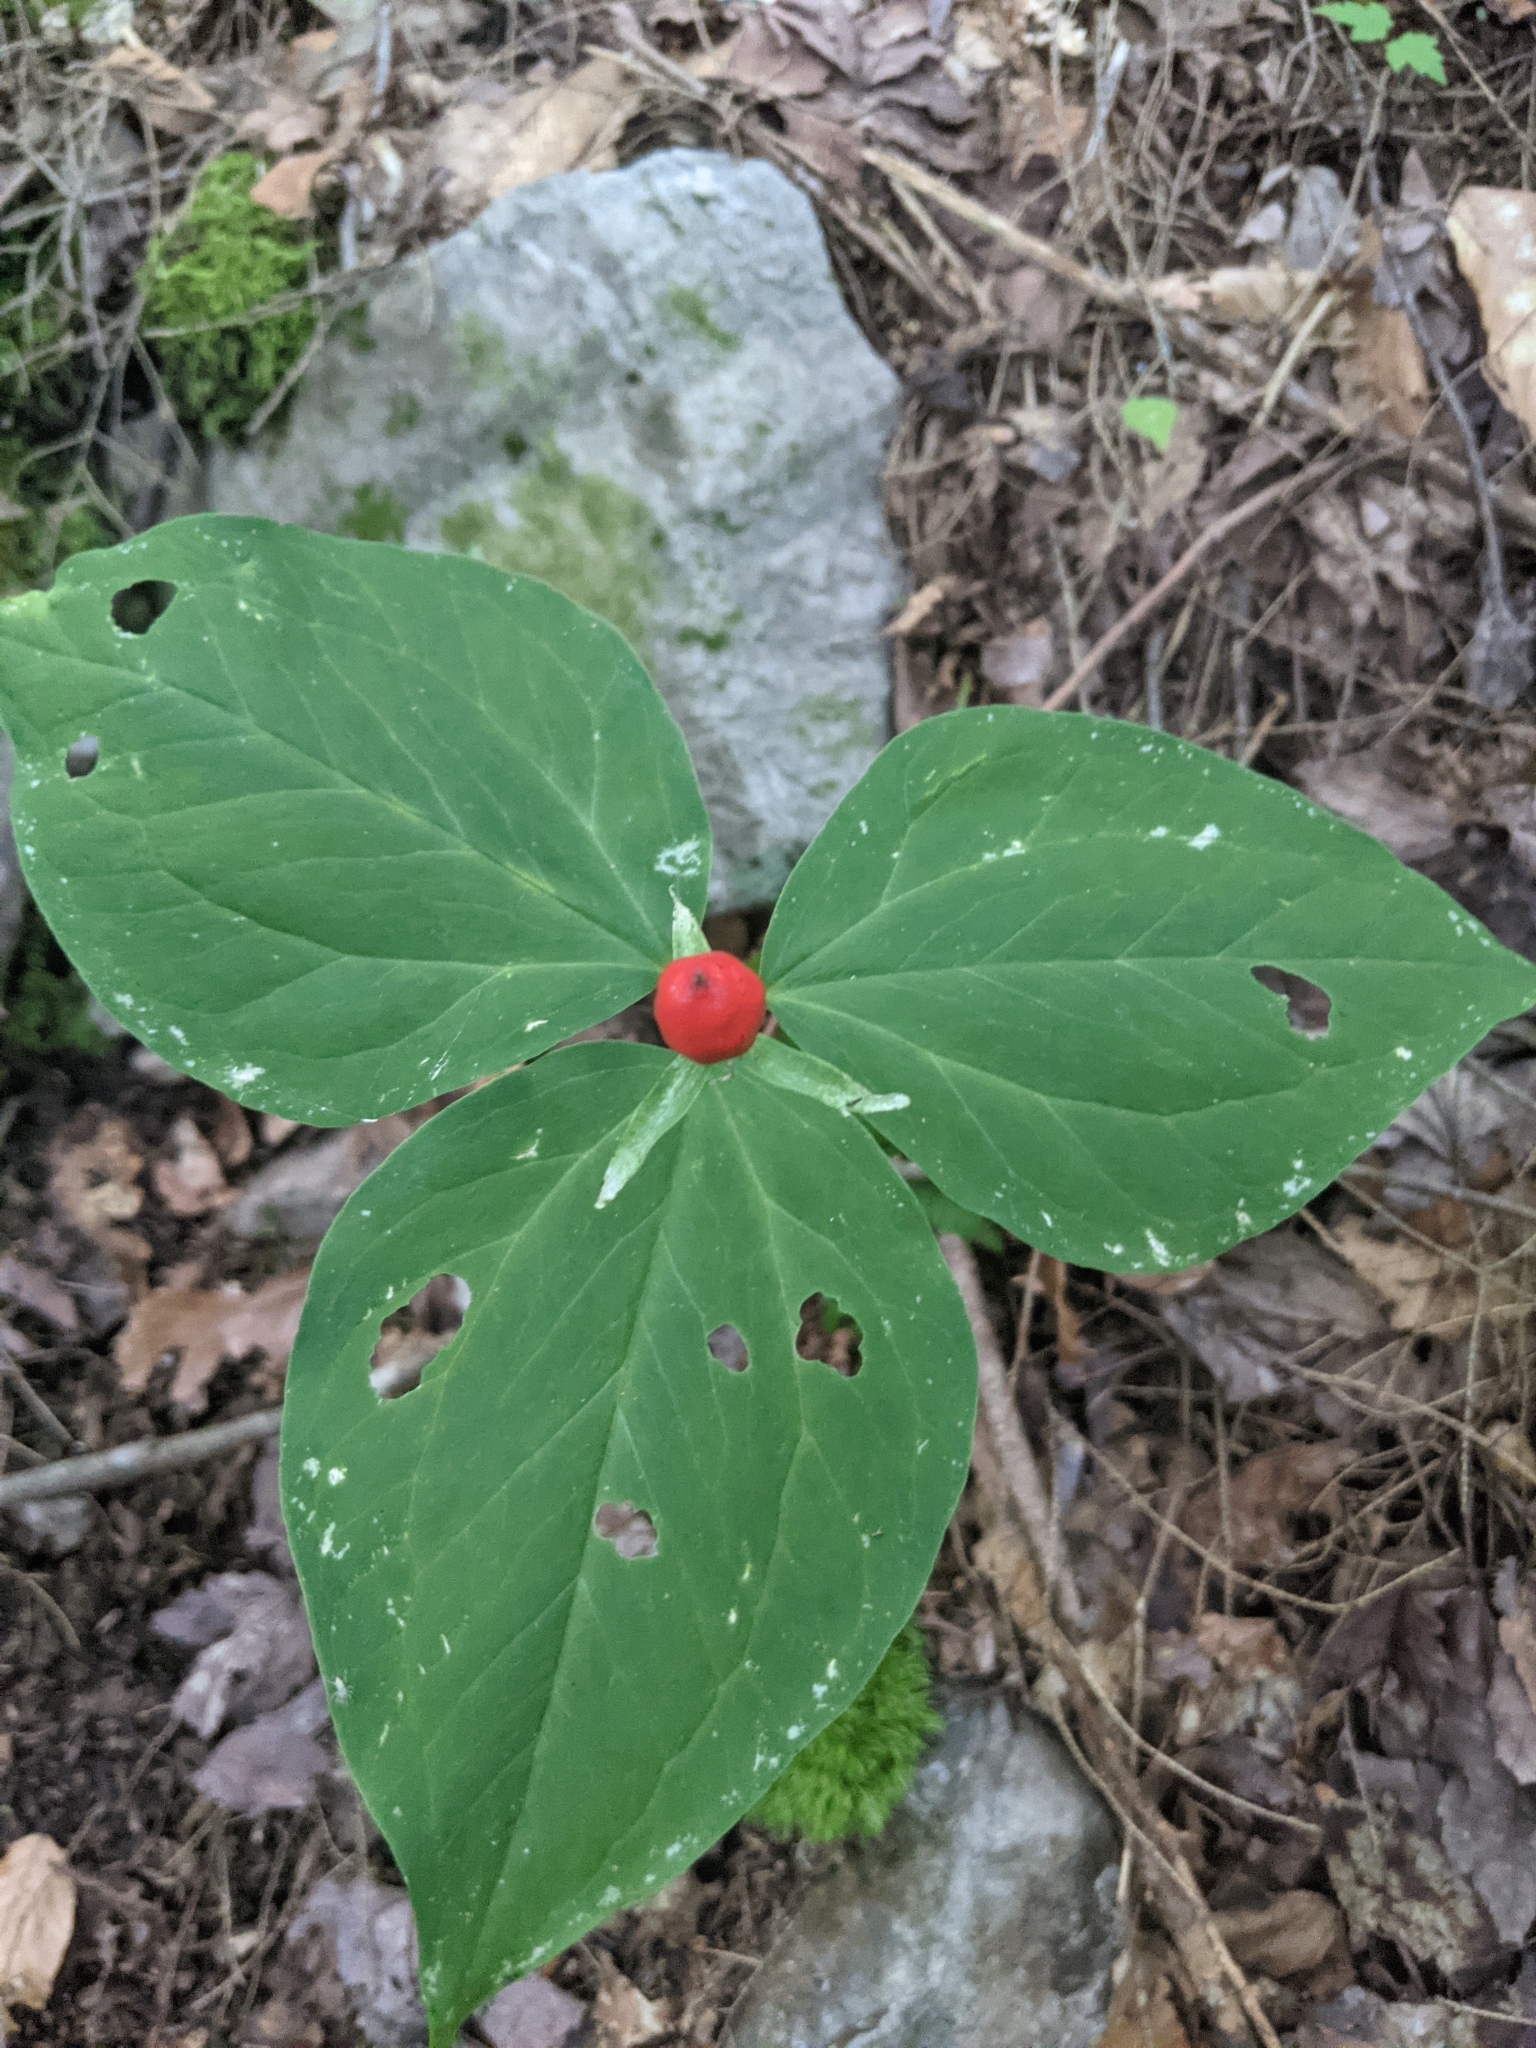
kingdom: Plantae
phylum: Tracheophyta
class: Liliopsida
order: Liliales
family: Melanthiaceae
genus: Trillium
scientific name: Trillium undulatum
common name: Paint trillium
